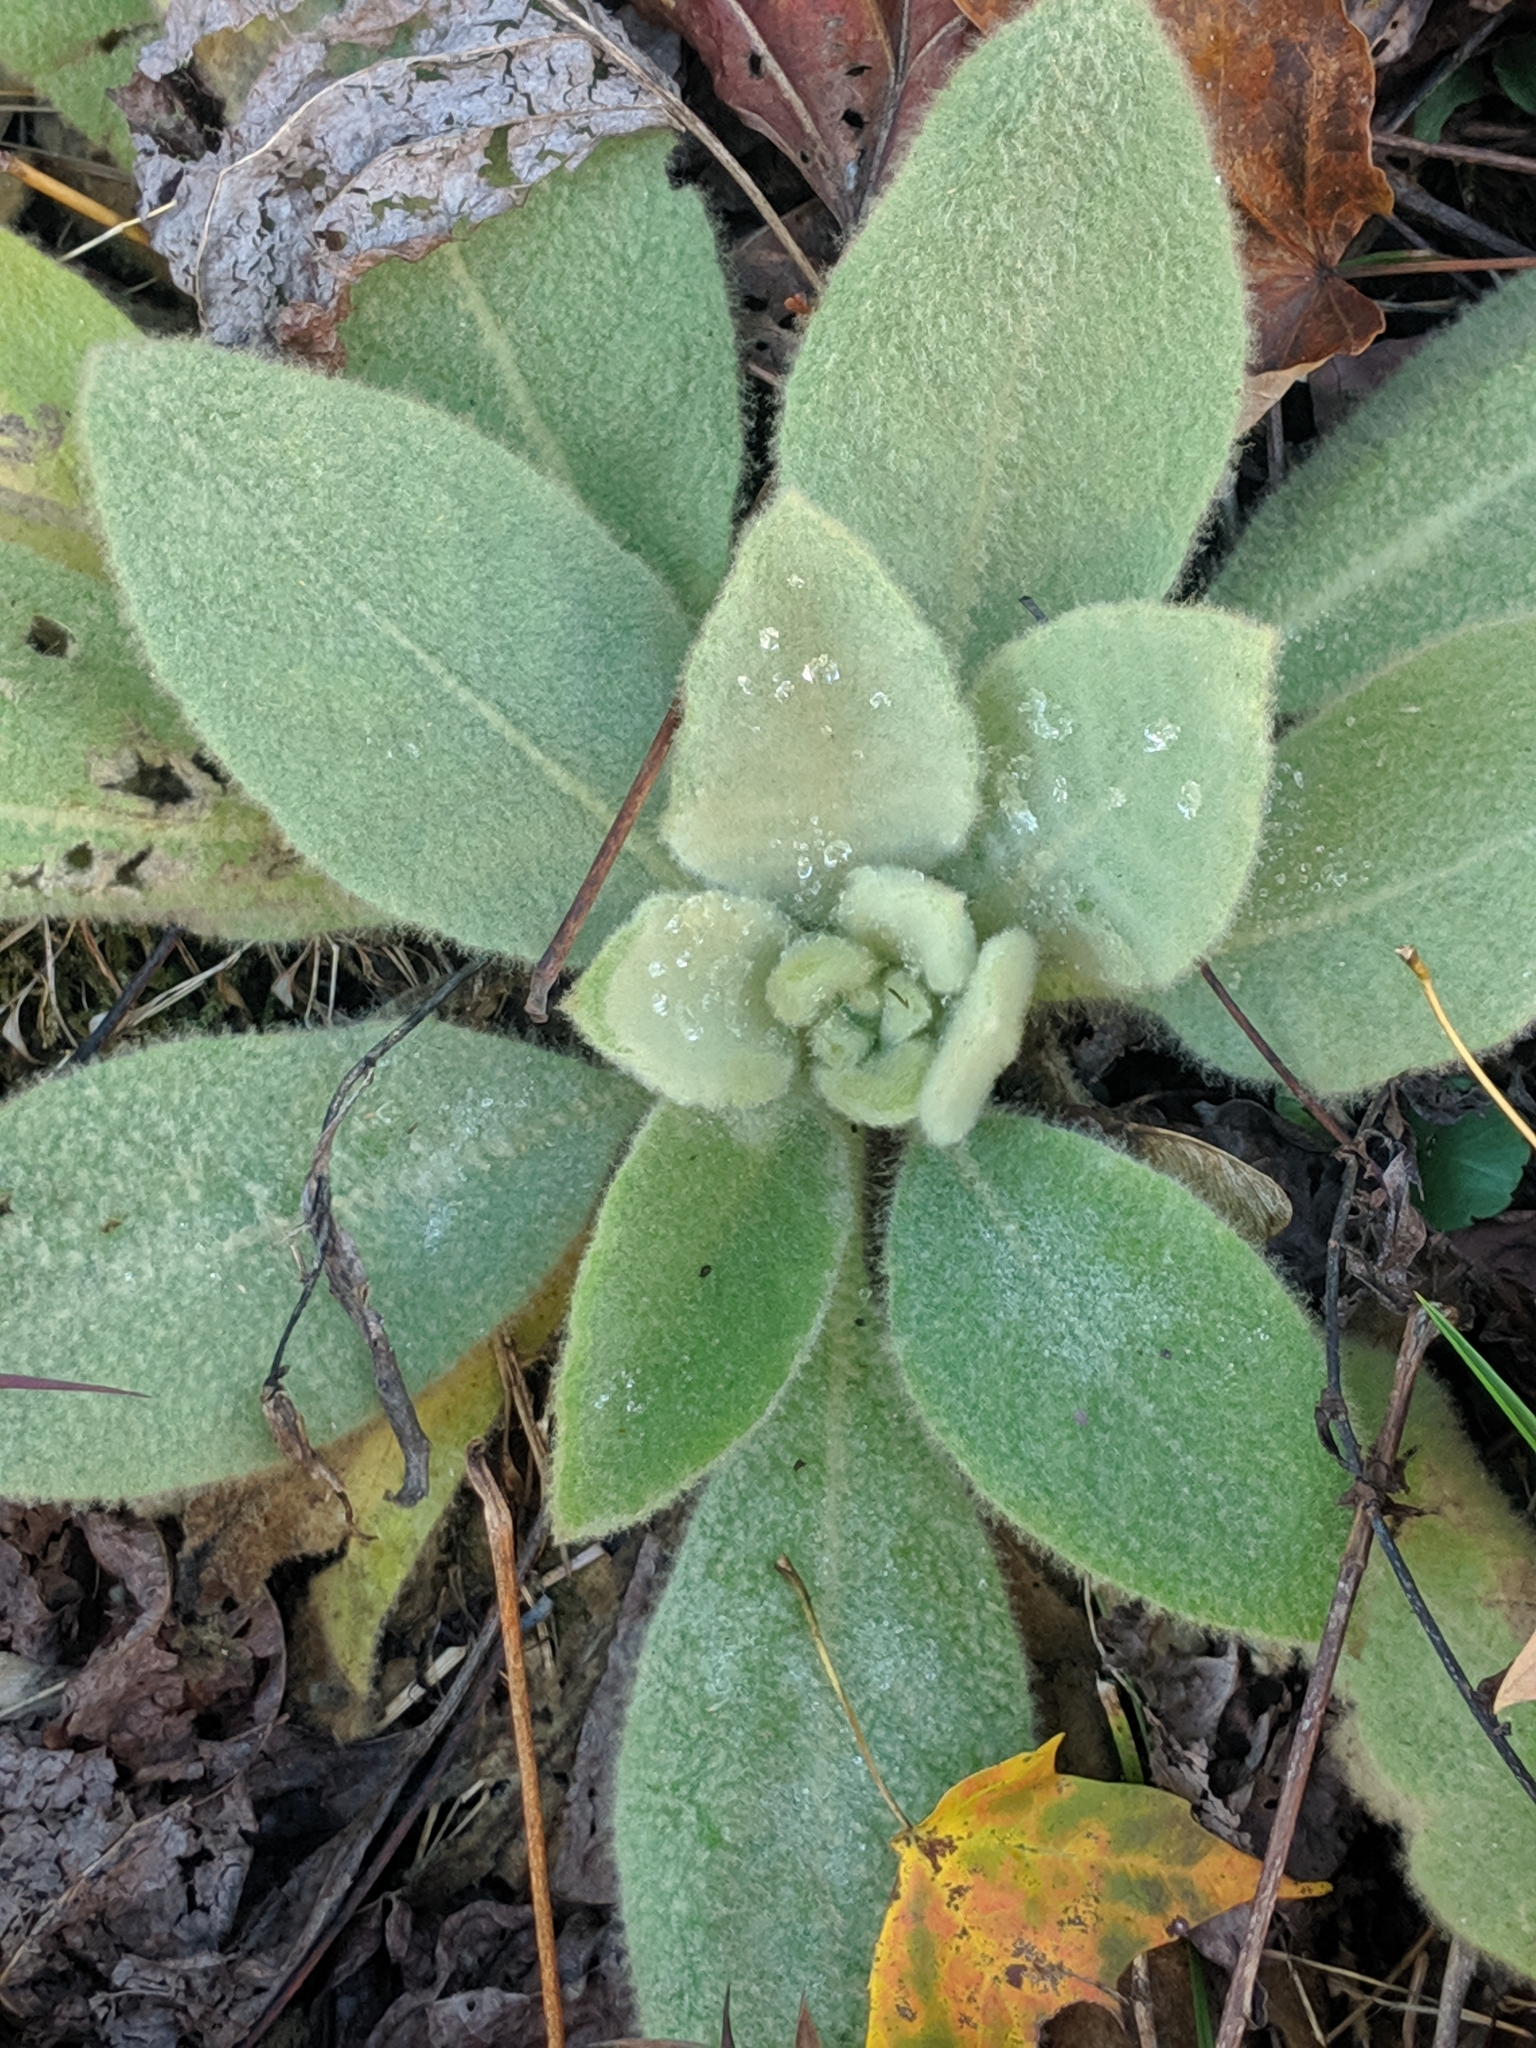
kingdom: Plantae
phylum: Tracheophyta
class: Magnoliopsida
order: Lamiales
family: Scrophulariaceae
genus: Verbascum
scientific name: Verbascum thapsus
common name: Common mullein
